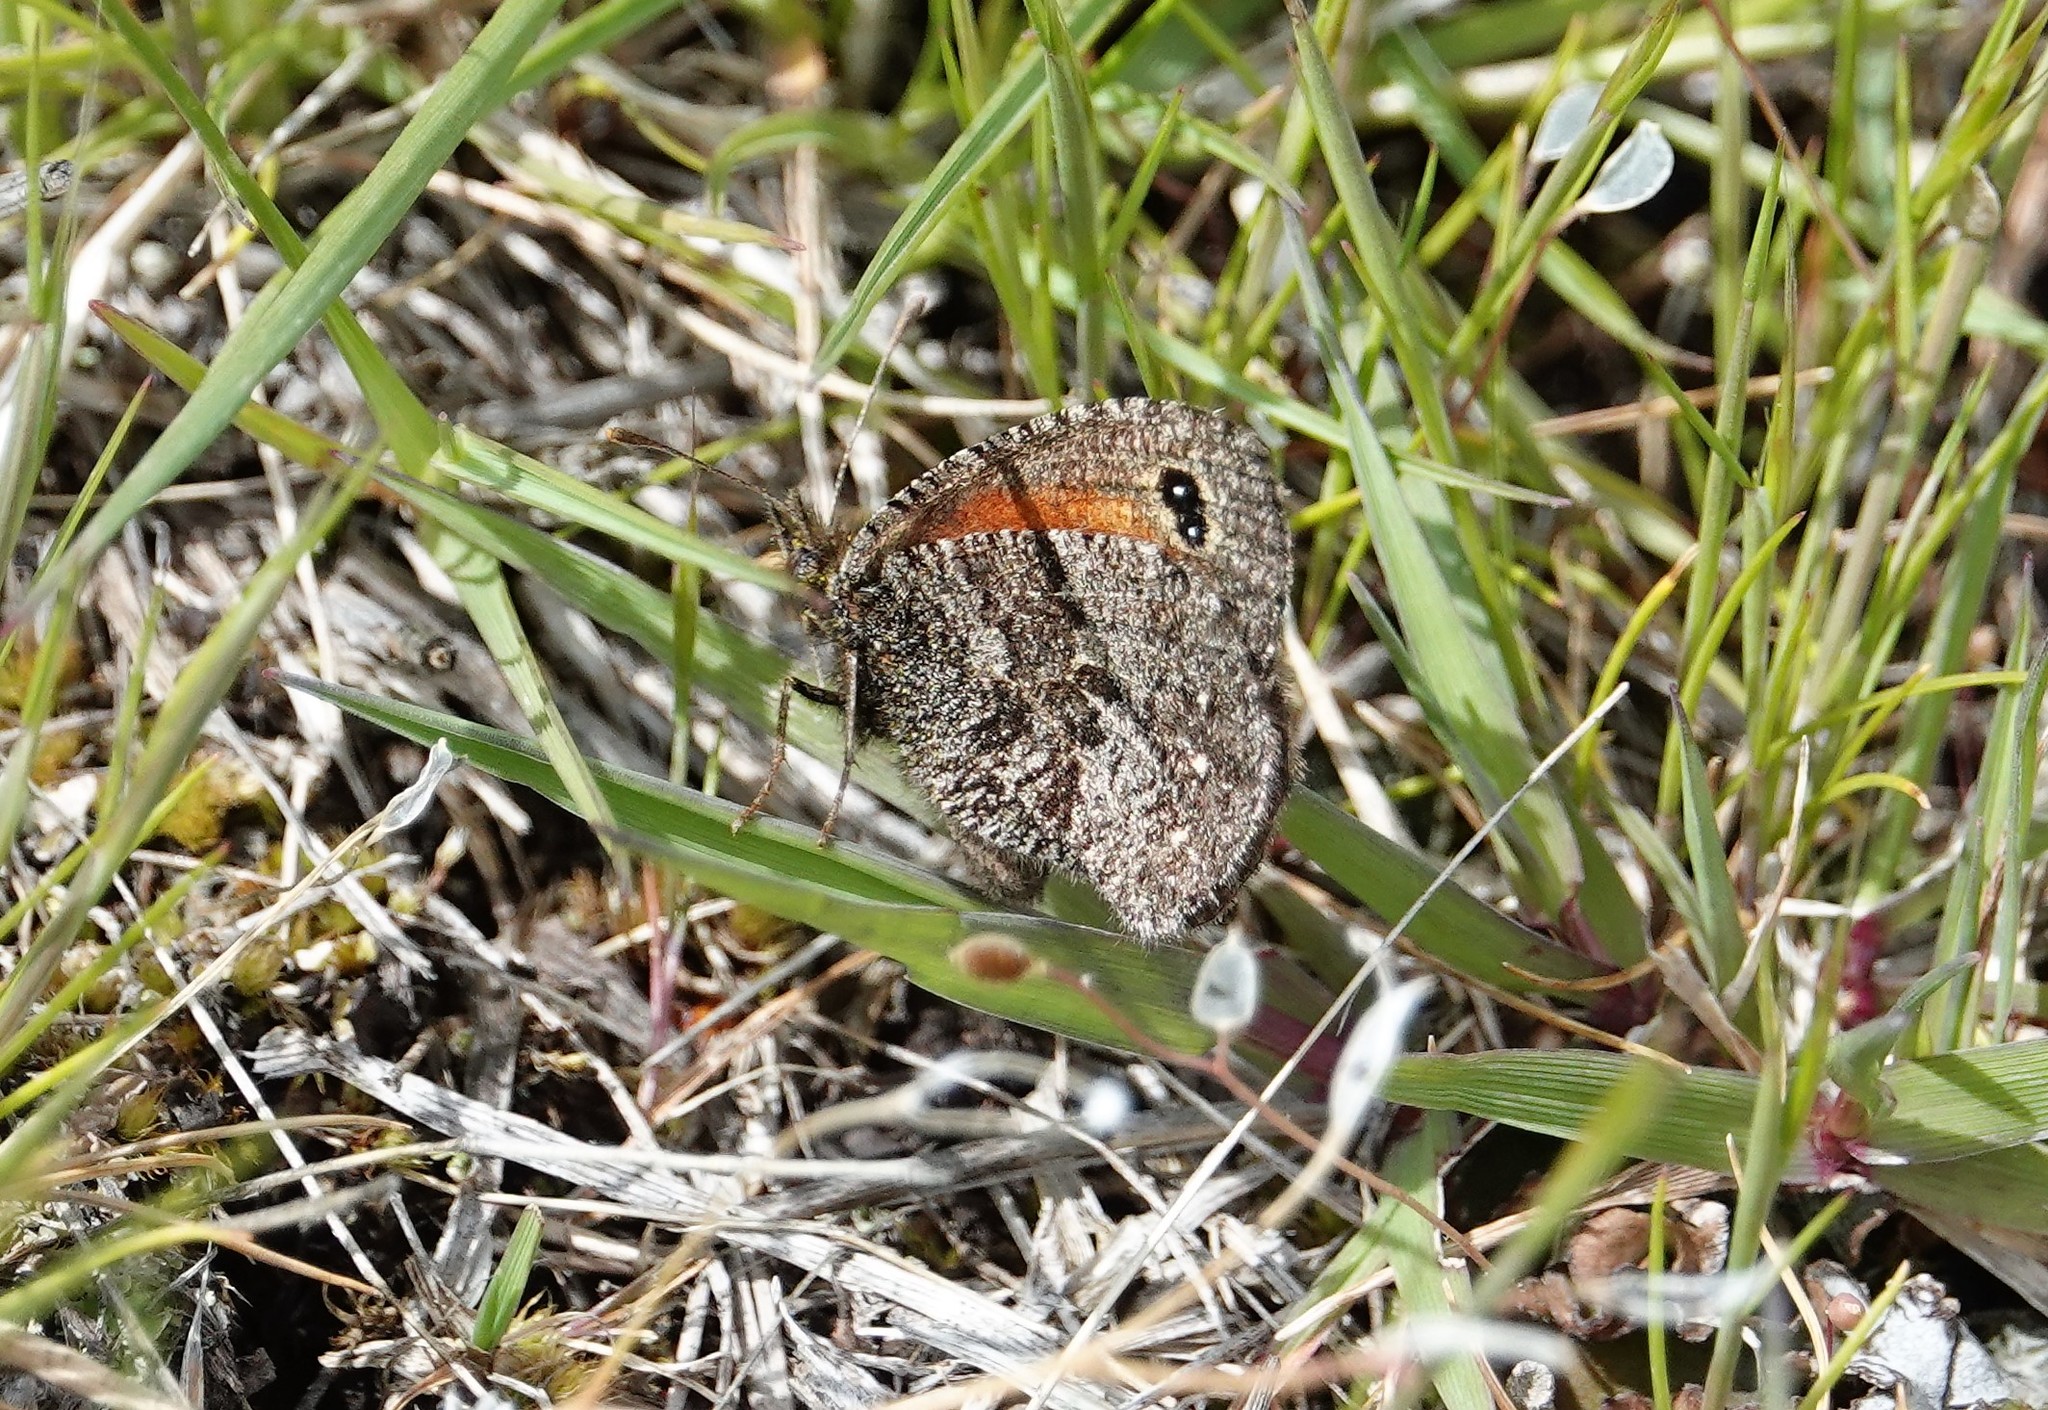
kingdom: Animalia
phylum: Arthropoda
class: Insecta
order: Lepidoptera
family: Nymphalidae
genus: Homoeonympha
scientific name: Homoeonympha boisduvalii
